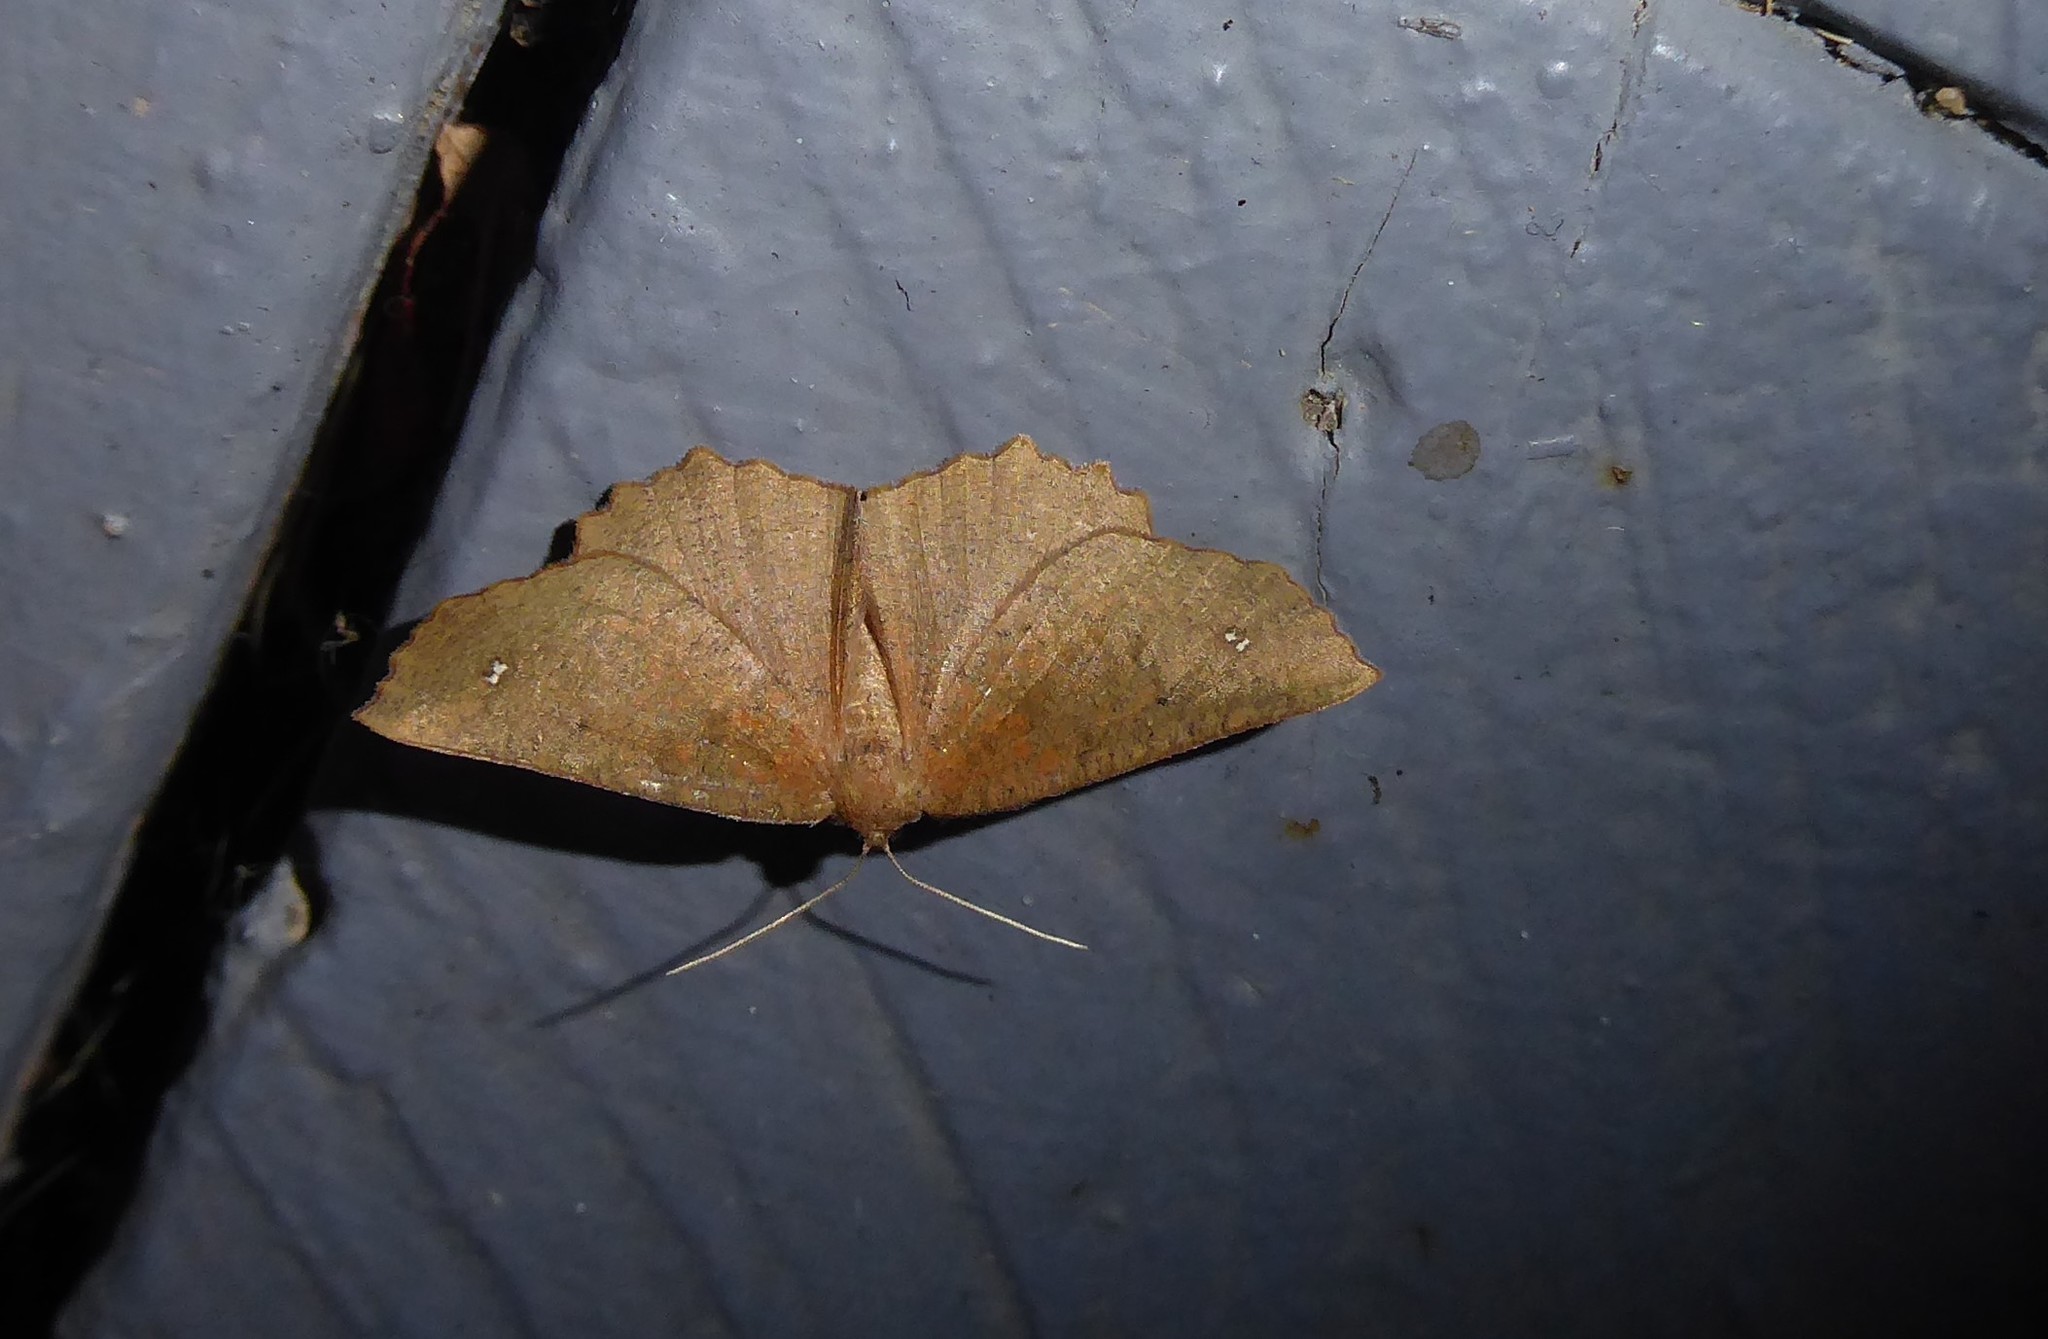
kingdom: Animalia
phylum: Arthropoda
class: Insecta
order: Lepidoptera
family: Geometridae
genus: Xyridacma
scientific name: Xyridacma ustaria
